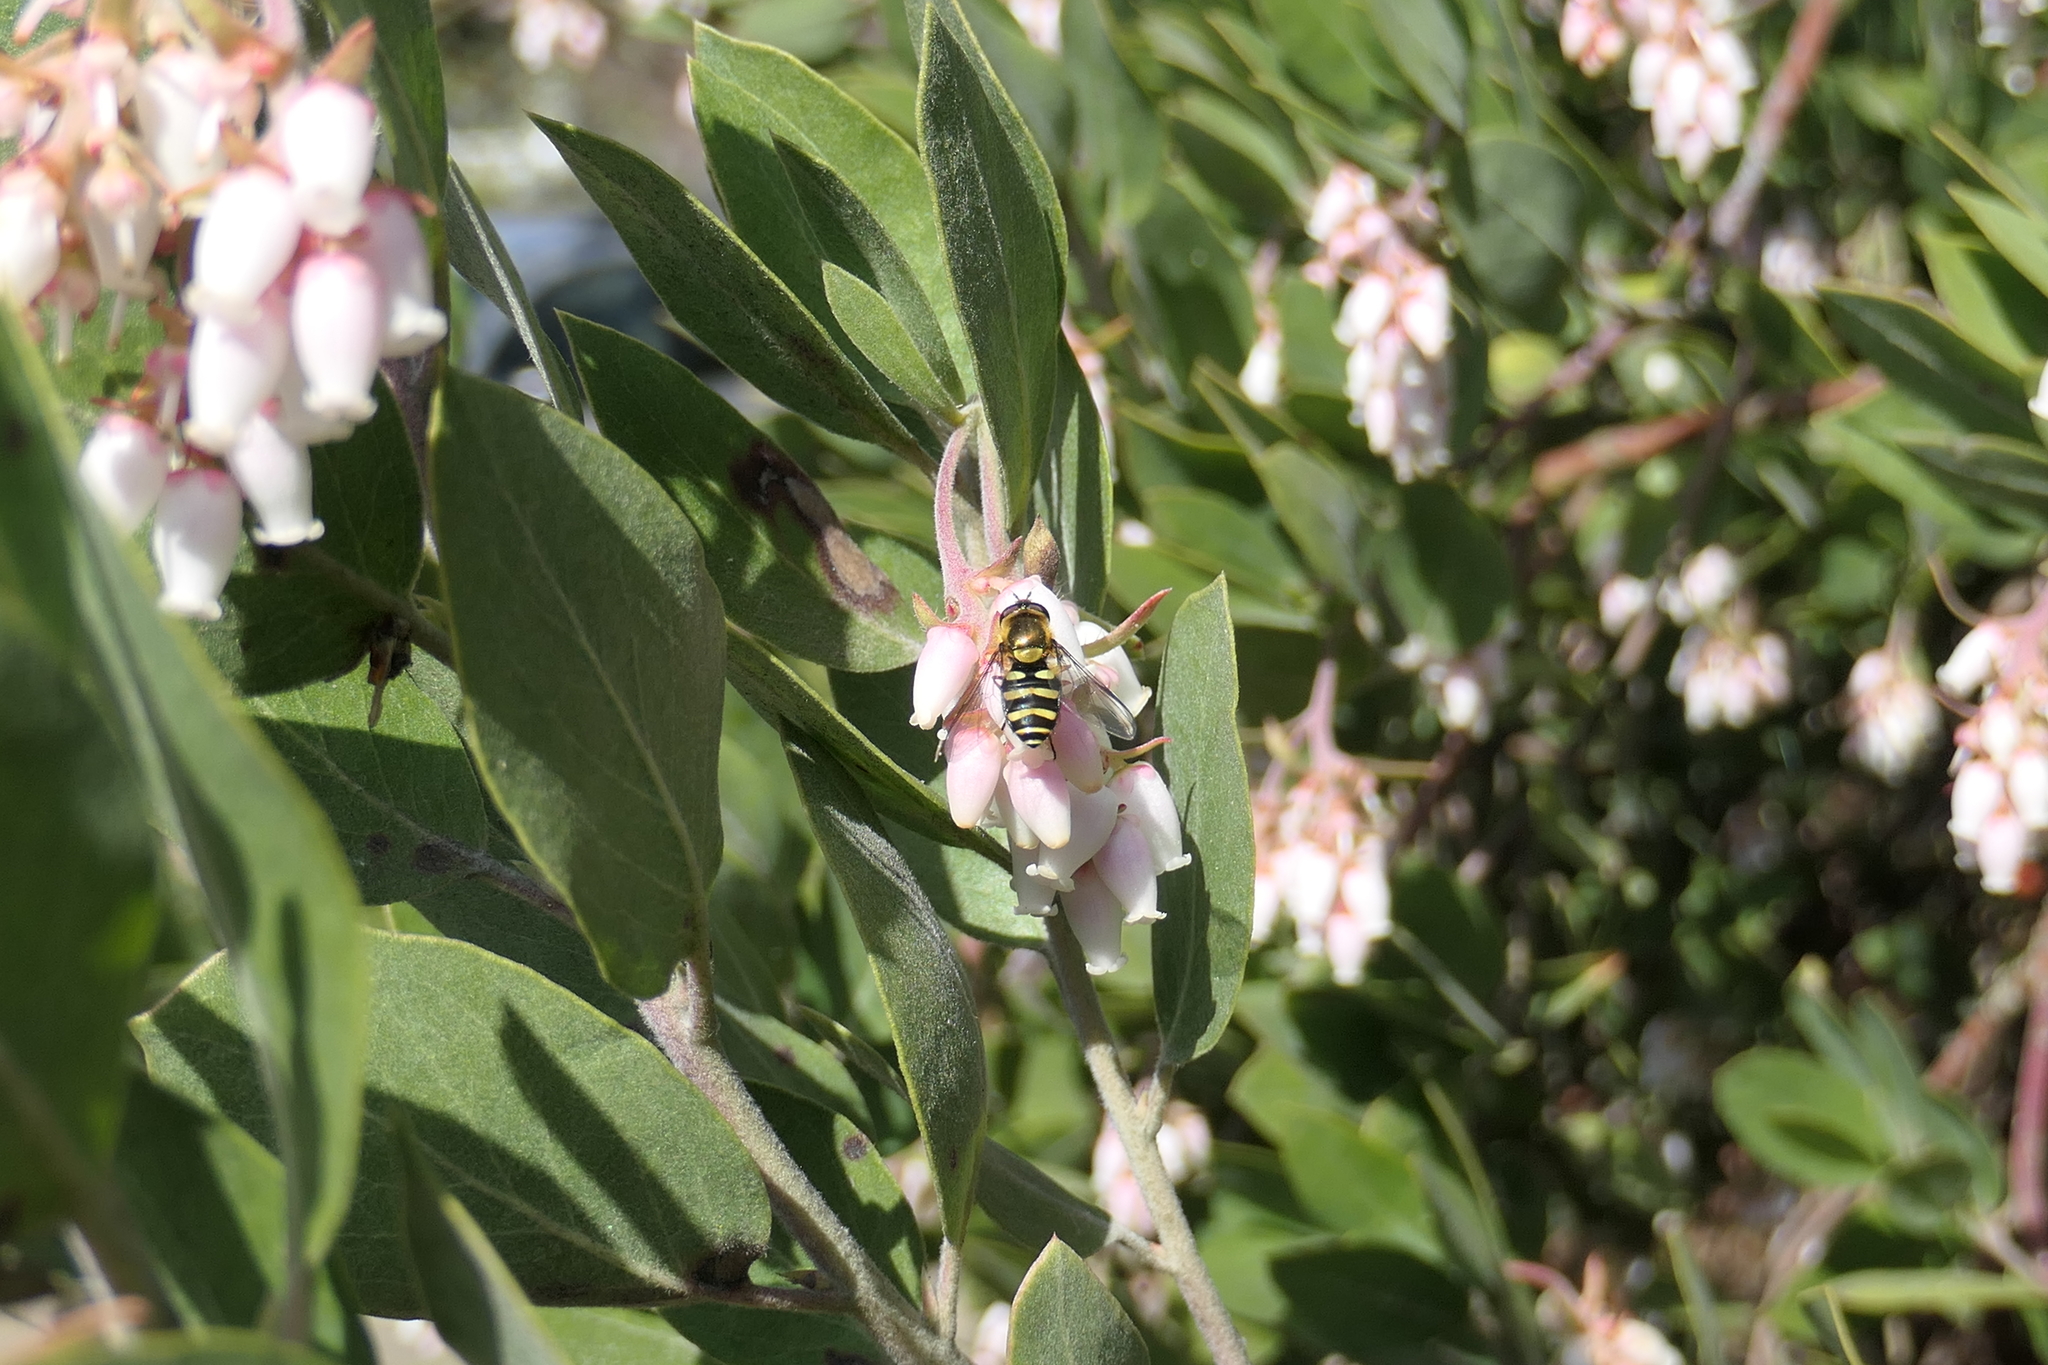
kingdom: Animalia
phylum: Arthropoda
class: Insecta
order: Diptera
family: Syrphidae
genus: Syrphus
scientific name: Syrphus opinator
